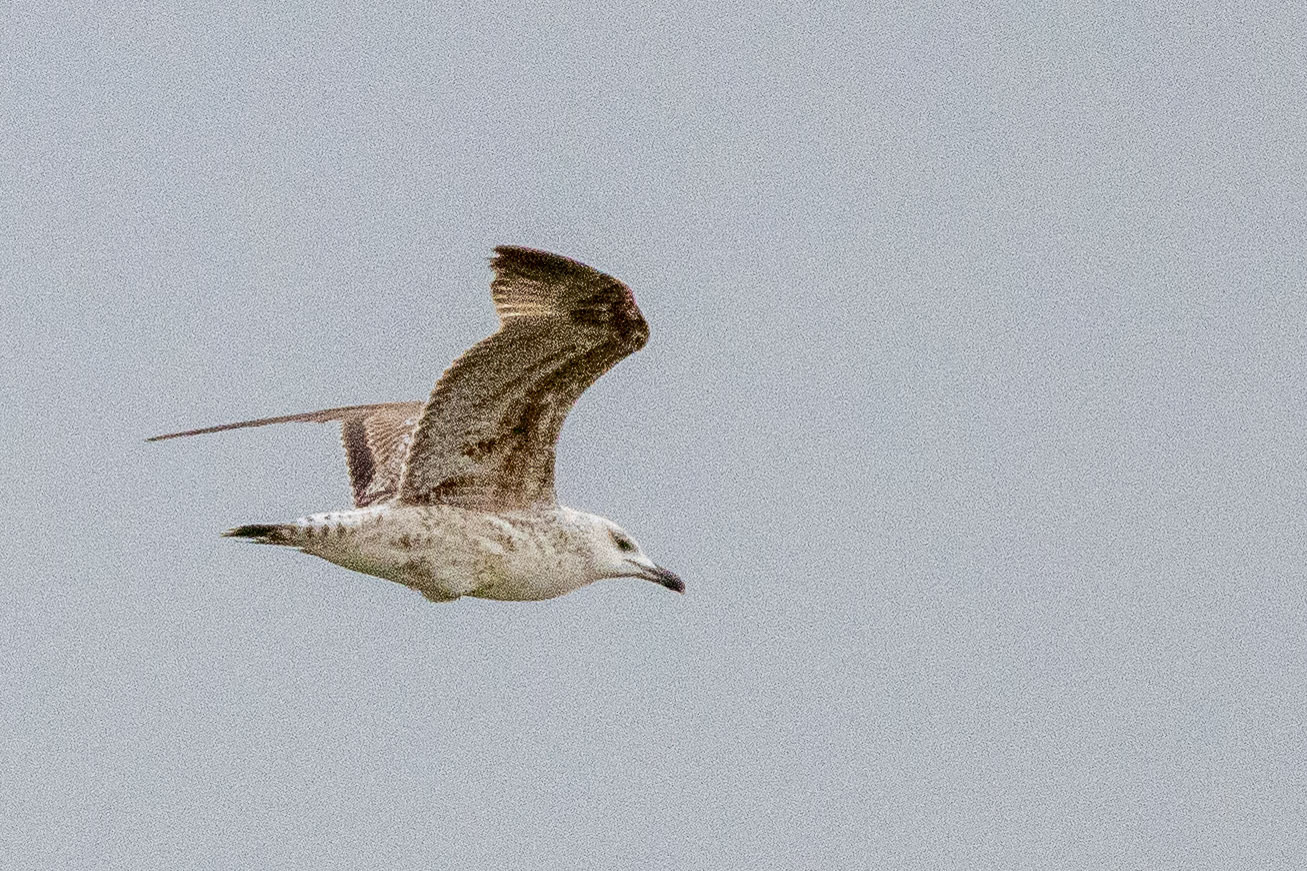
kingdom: Animalia
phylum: Chordata
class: Aves
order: Charadriiformes
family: Laridae
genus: Larus
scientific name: Larus michahellis
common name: Yellow-legged gull
